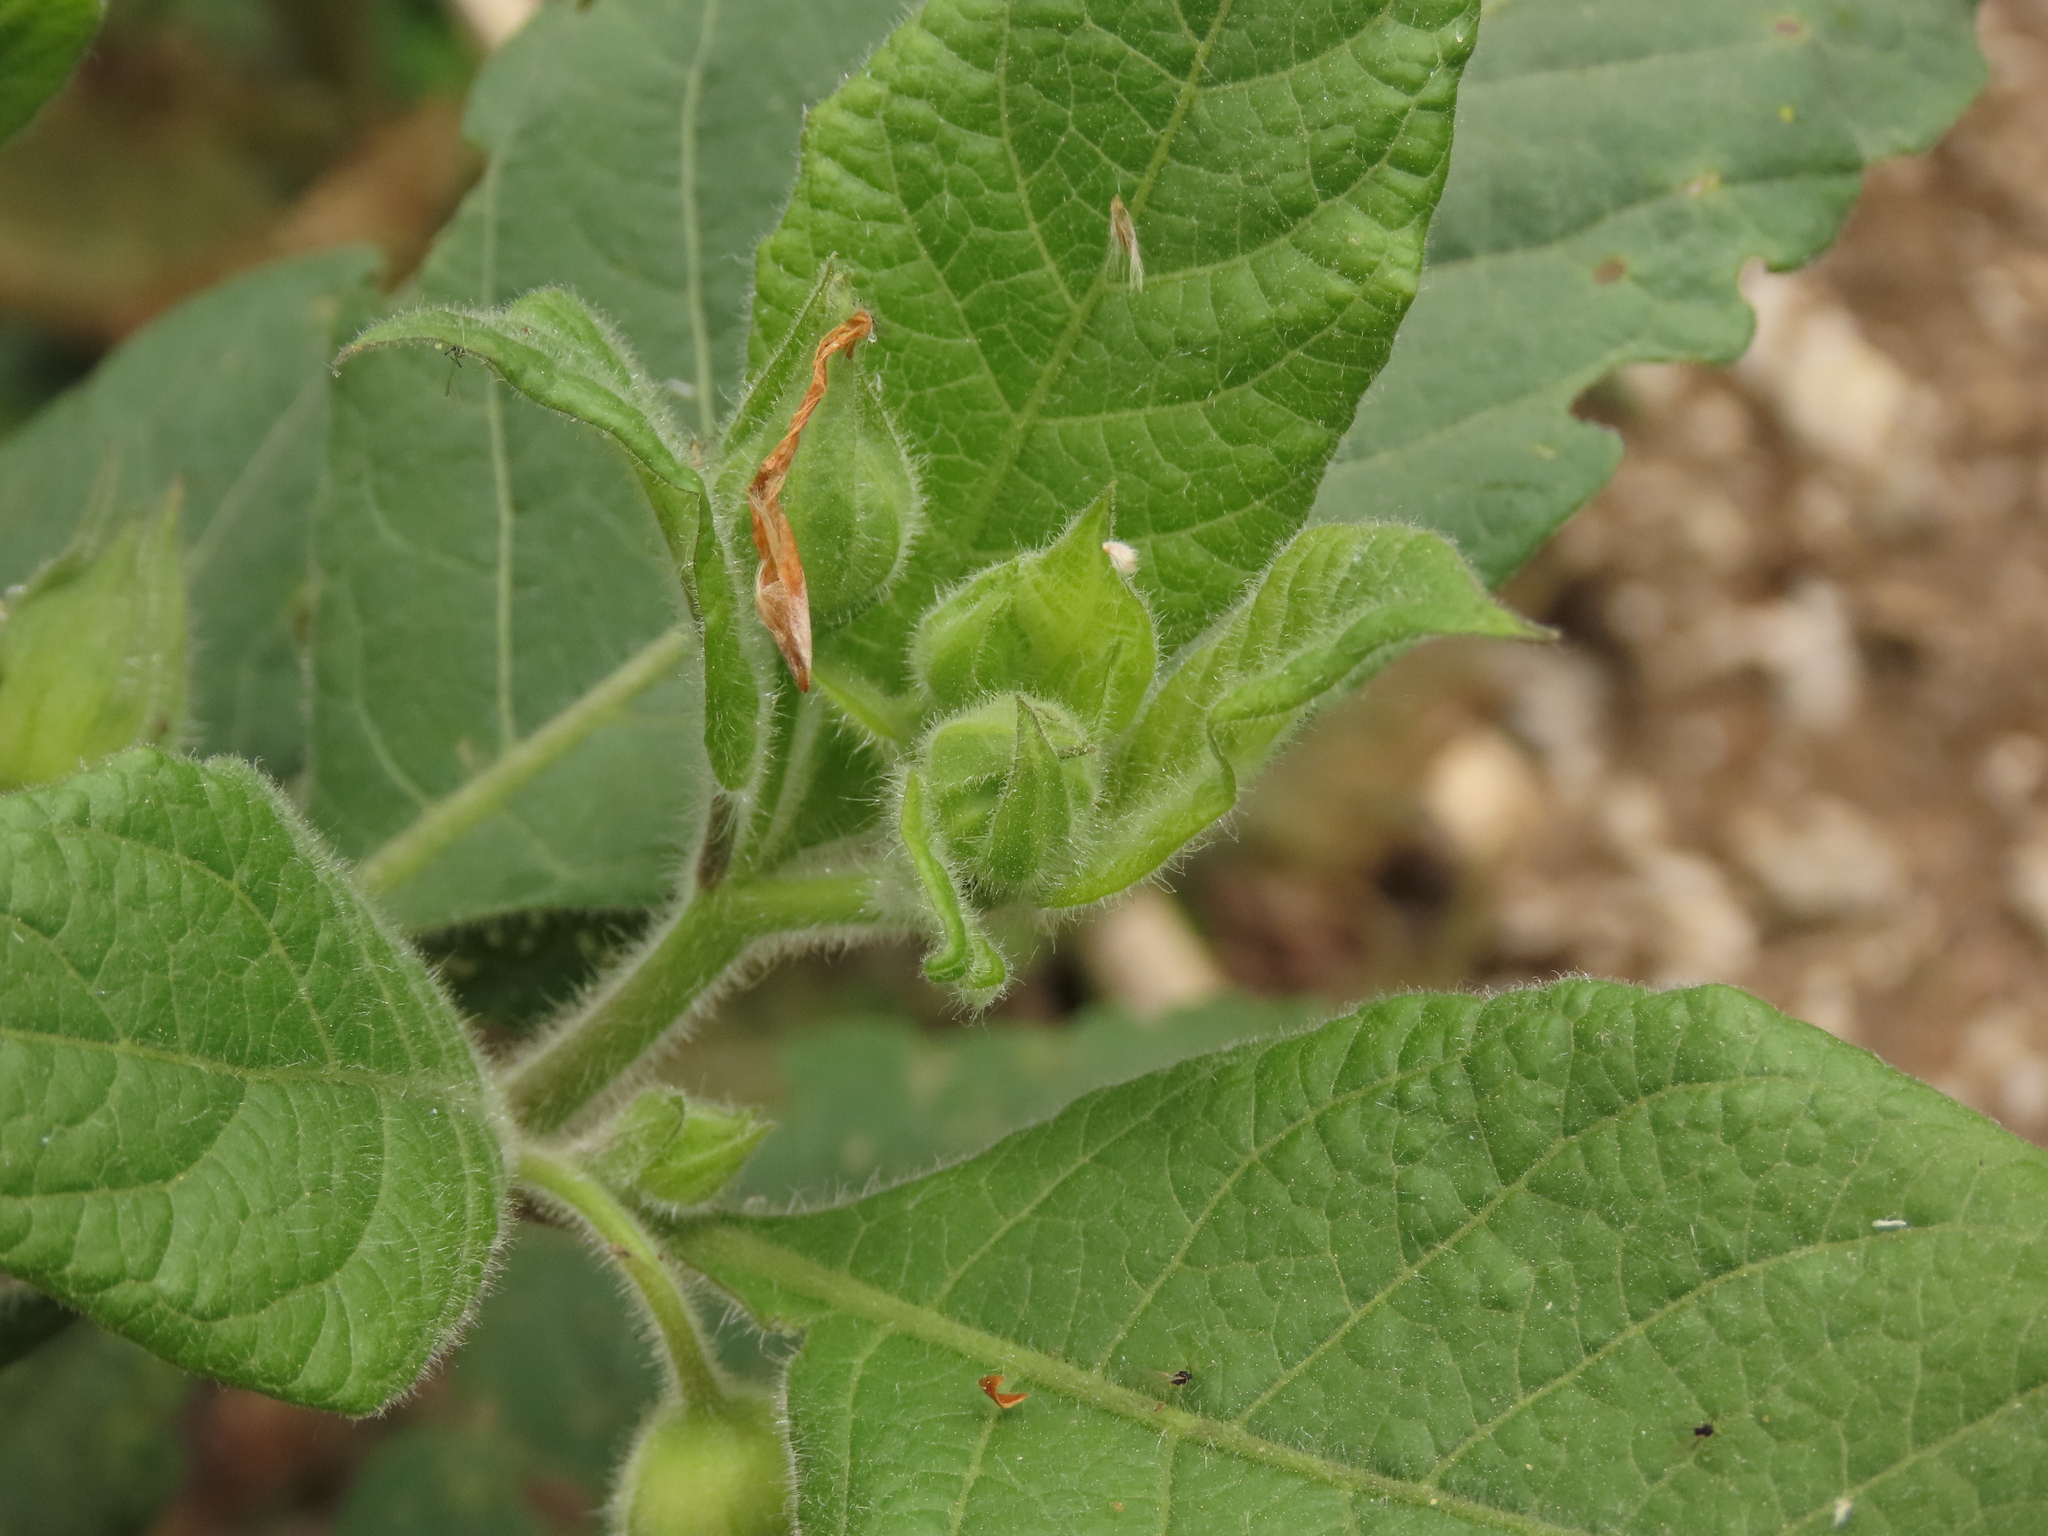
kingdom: Plantae
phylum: Tracheophyta
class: Magnoliopsida
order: Solanales
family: Solanaceae
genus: Atropa
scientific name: Atropa belladonna
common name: Deadly nightshade
